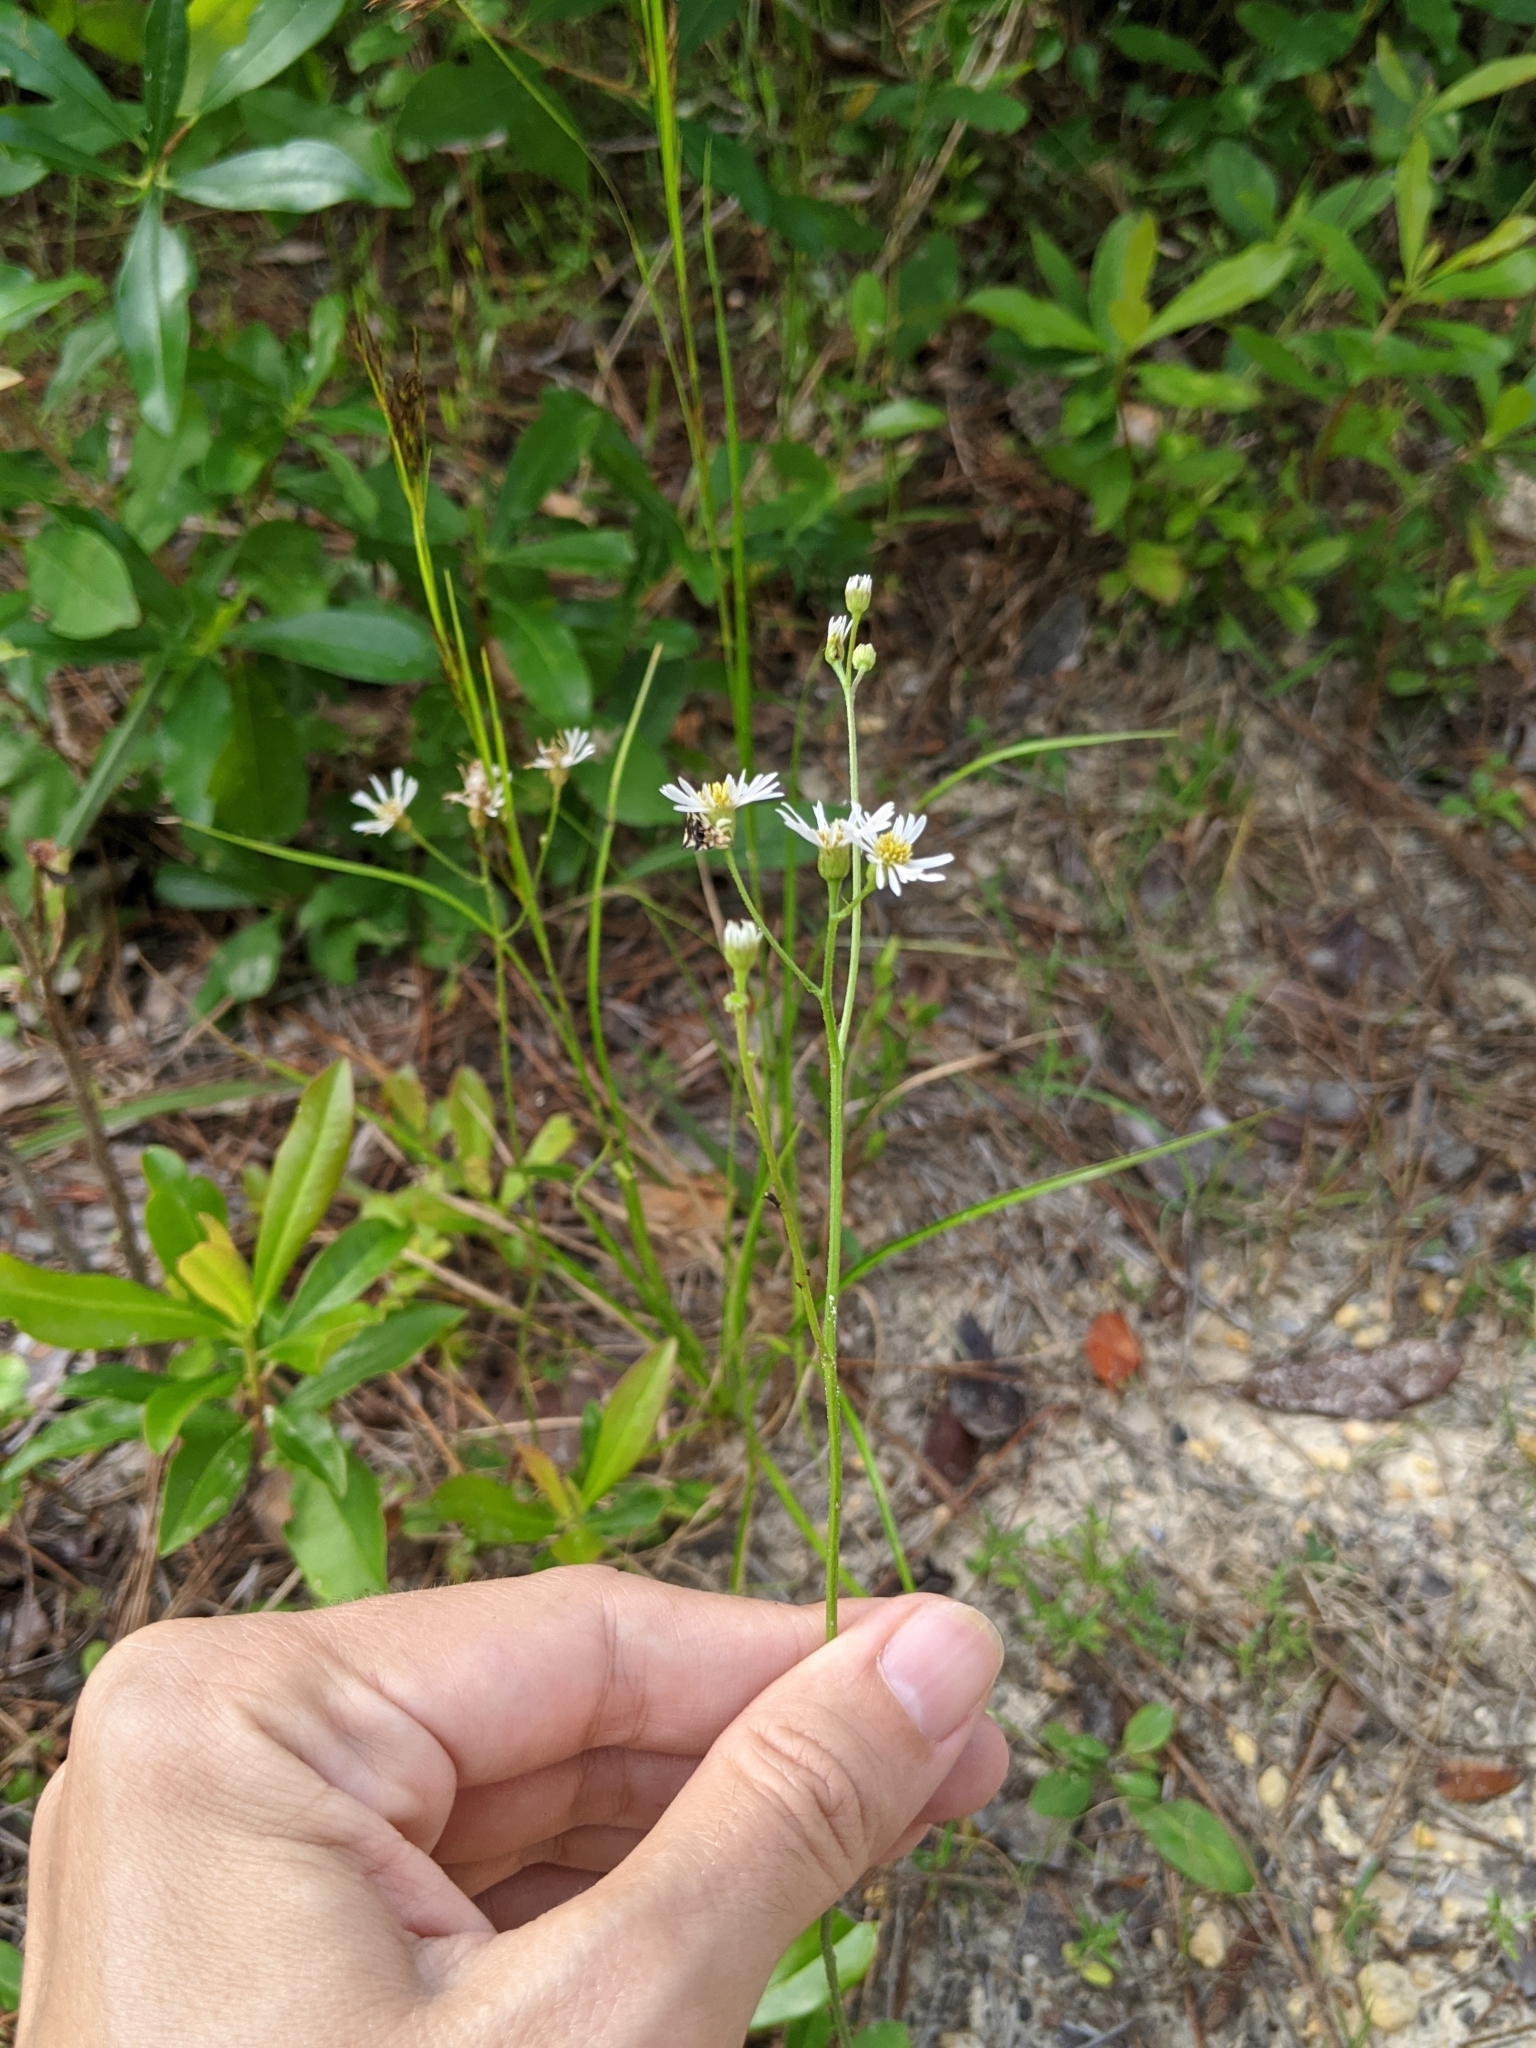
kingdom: Plantae
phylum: Tracheophyta
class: Magnoliopsida
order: Asterales
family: Asteraceae
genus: Erigeron
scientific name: Erigeron vernus
